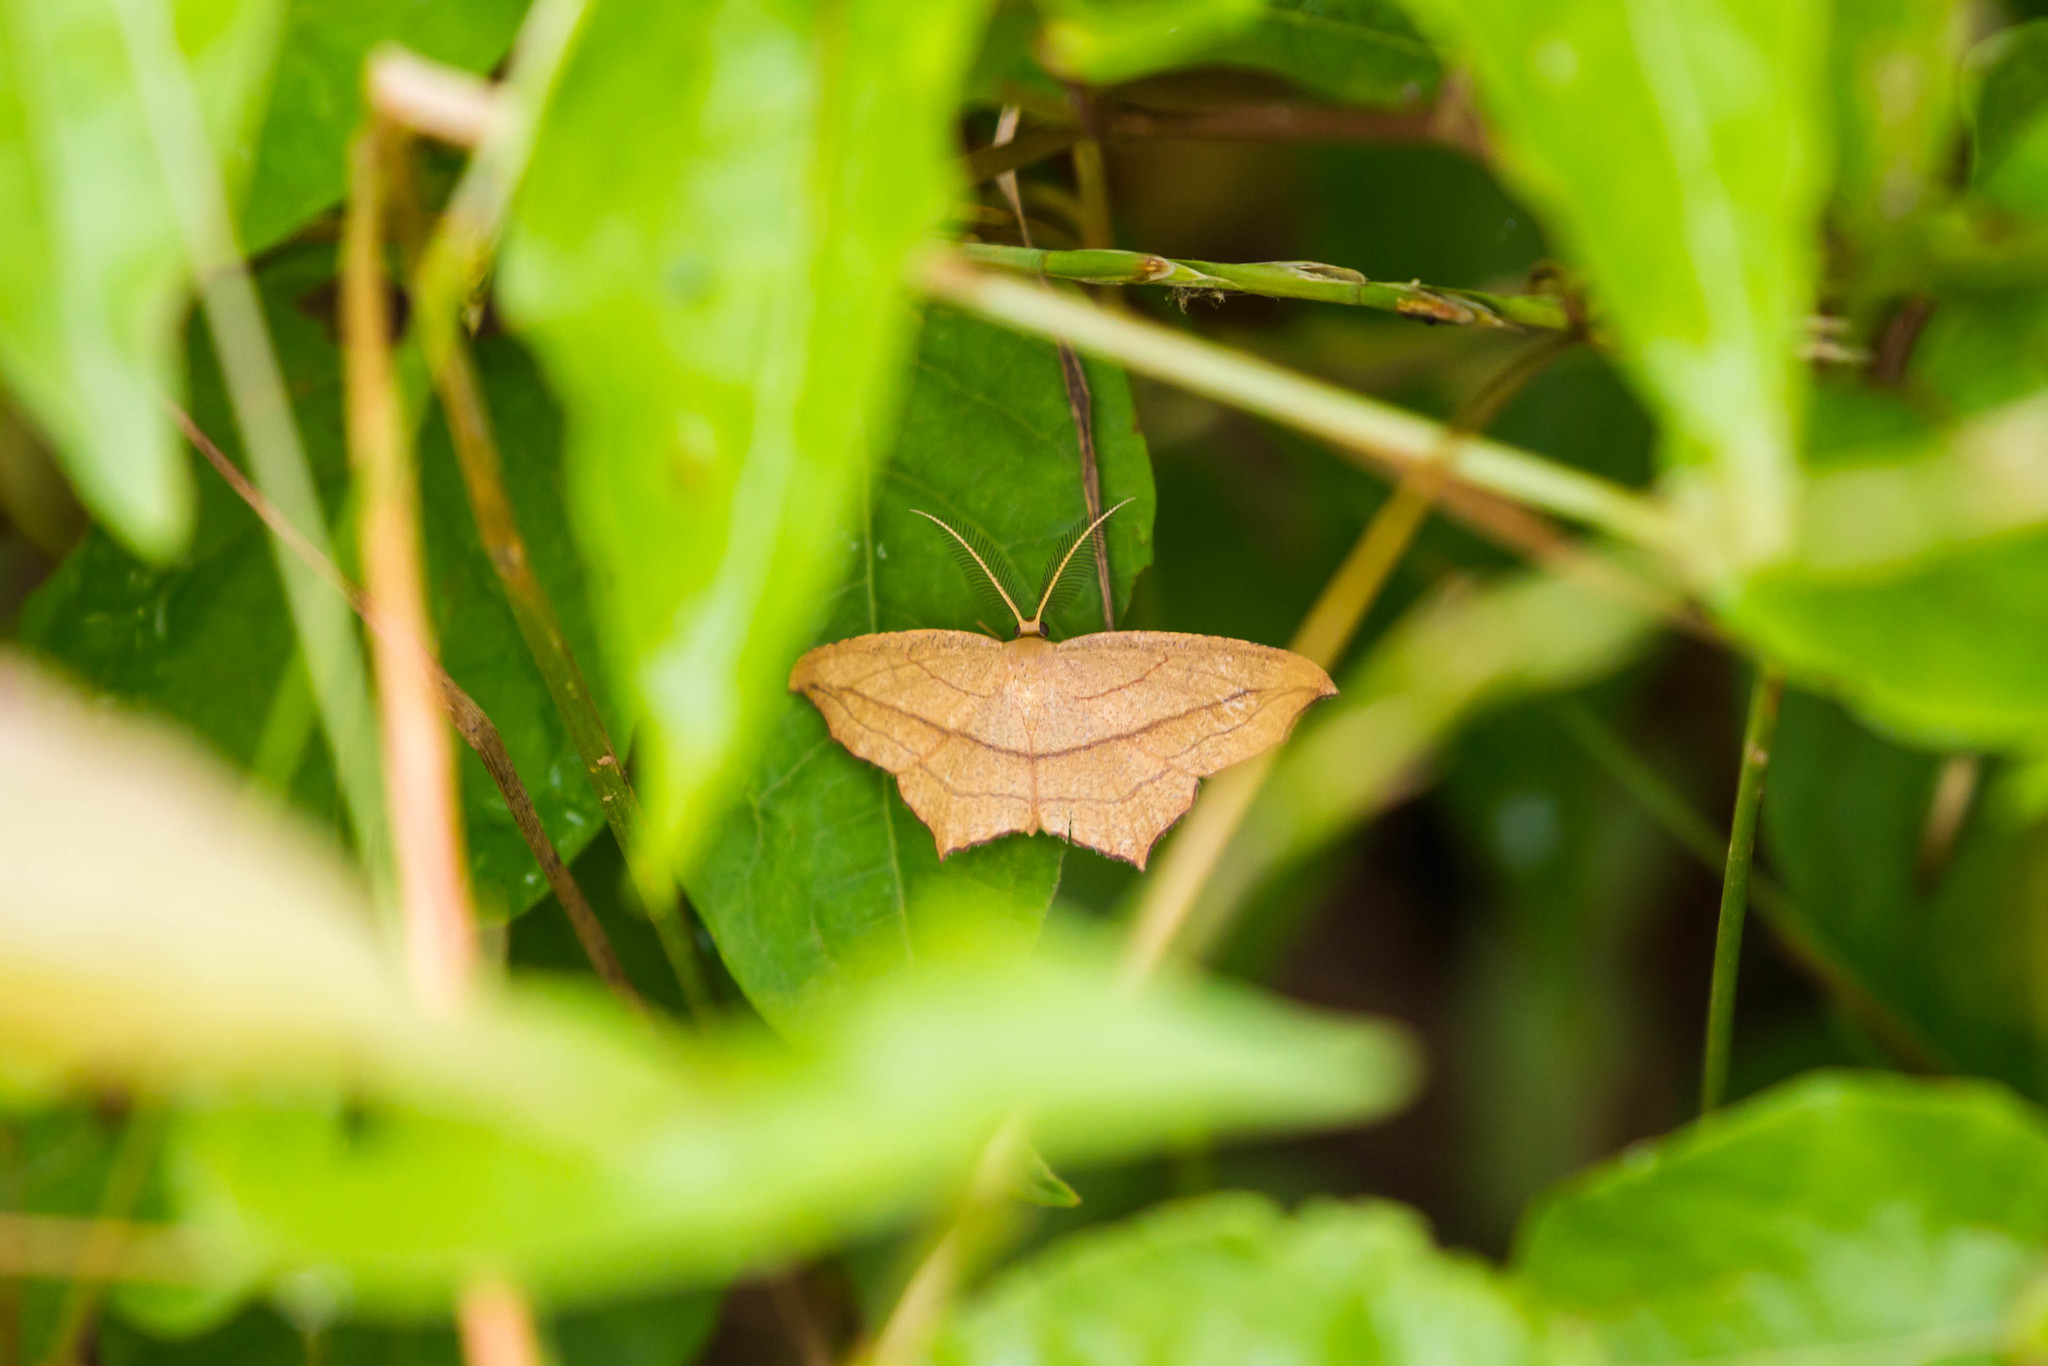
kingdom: Animalia
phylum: Arthropoda
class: Insecta
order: Lepidoptera
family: Geometridae
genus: Timandra
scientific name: Timandra amaturaria
